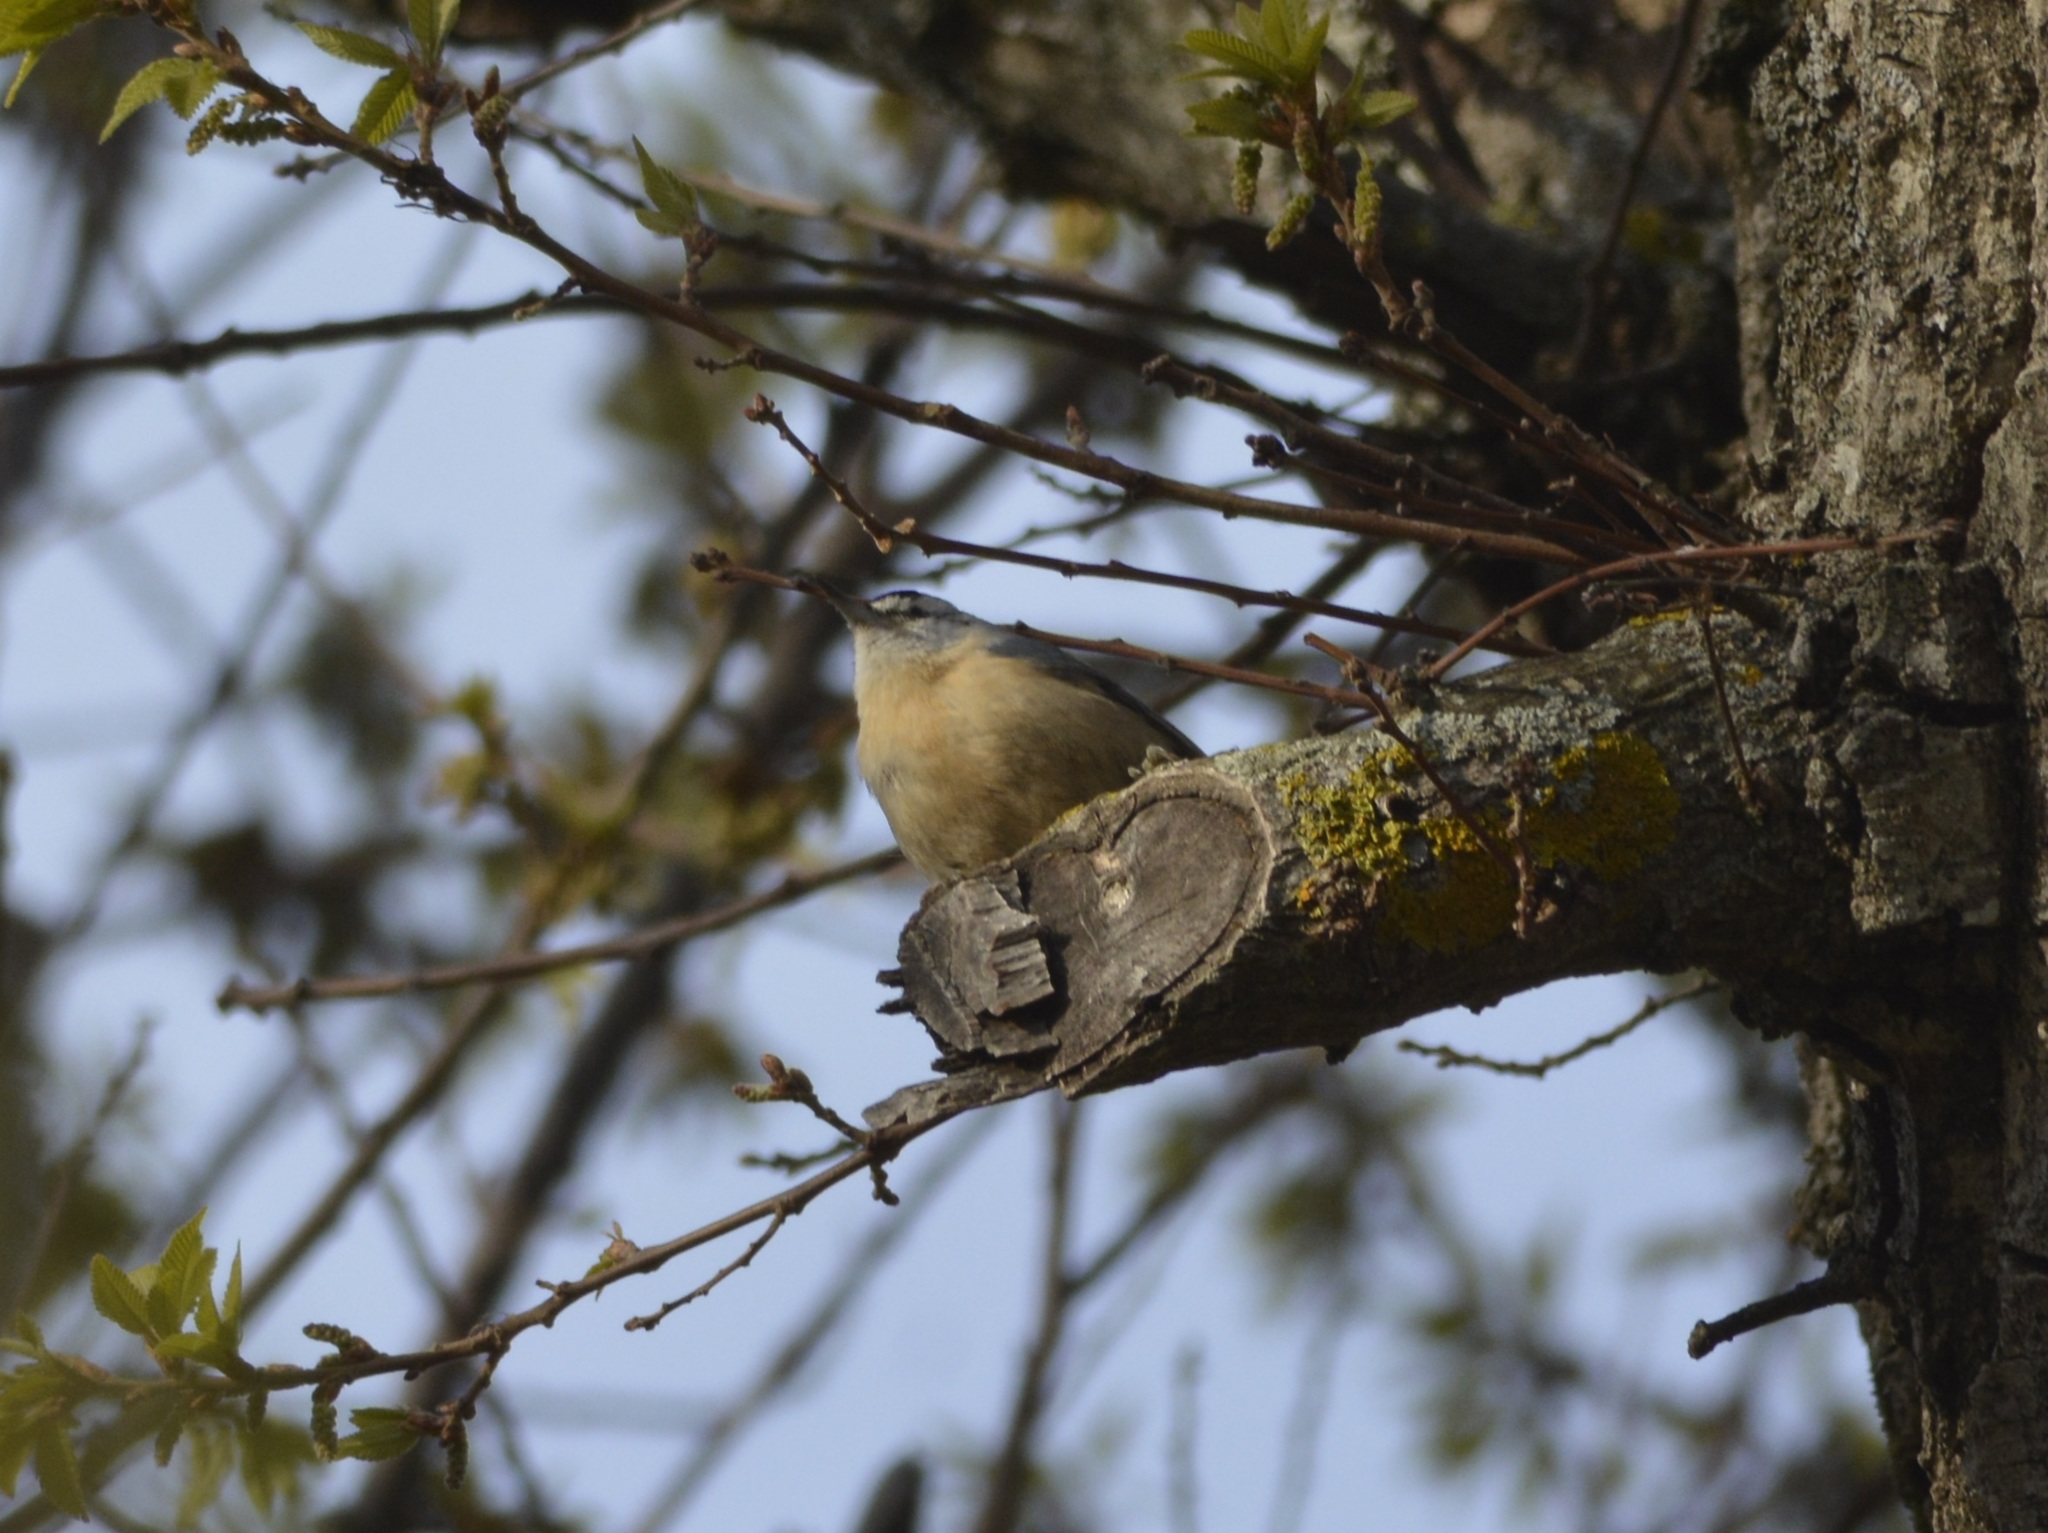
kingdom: Animalia
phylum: Chordata
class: Aves
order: Passeriformes
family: Sittidae
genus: Sitta
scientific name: Sitta ledanti
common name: Algerian nuthatch
